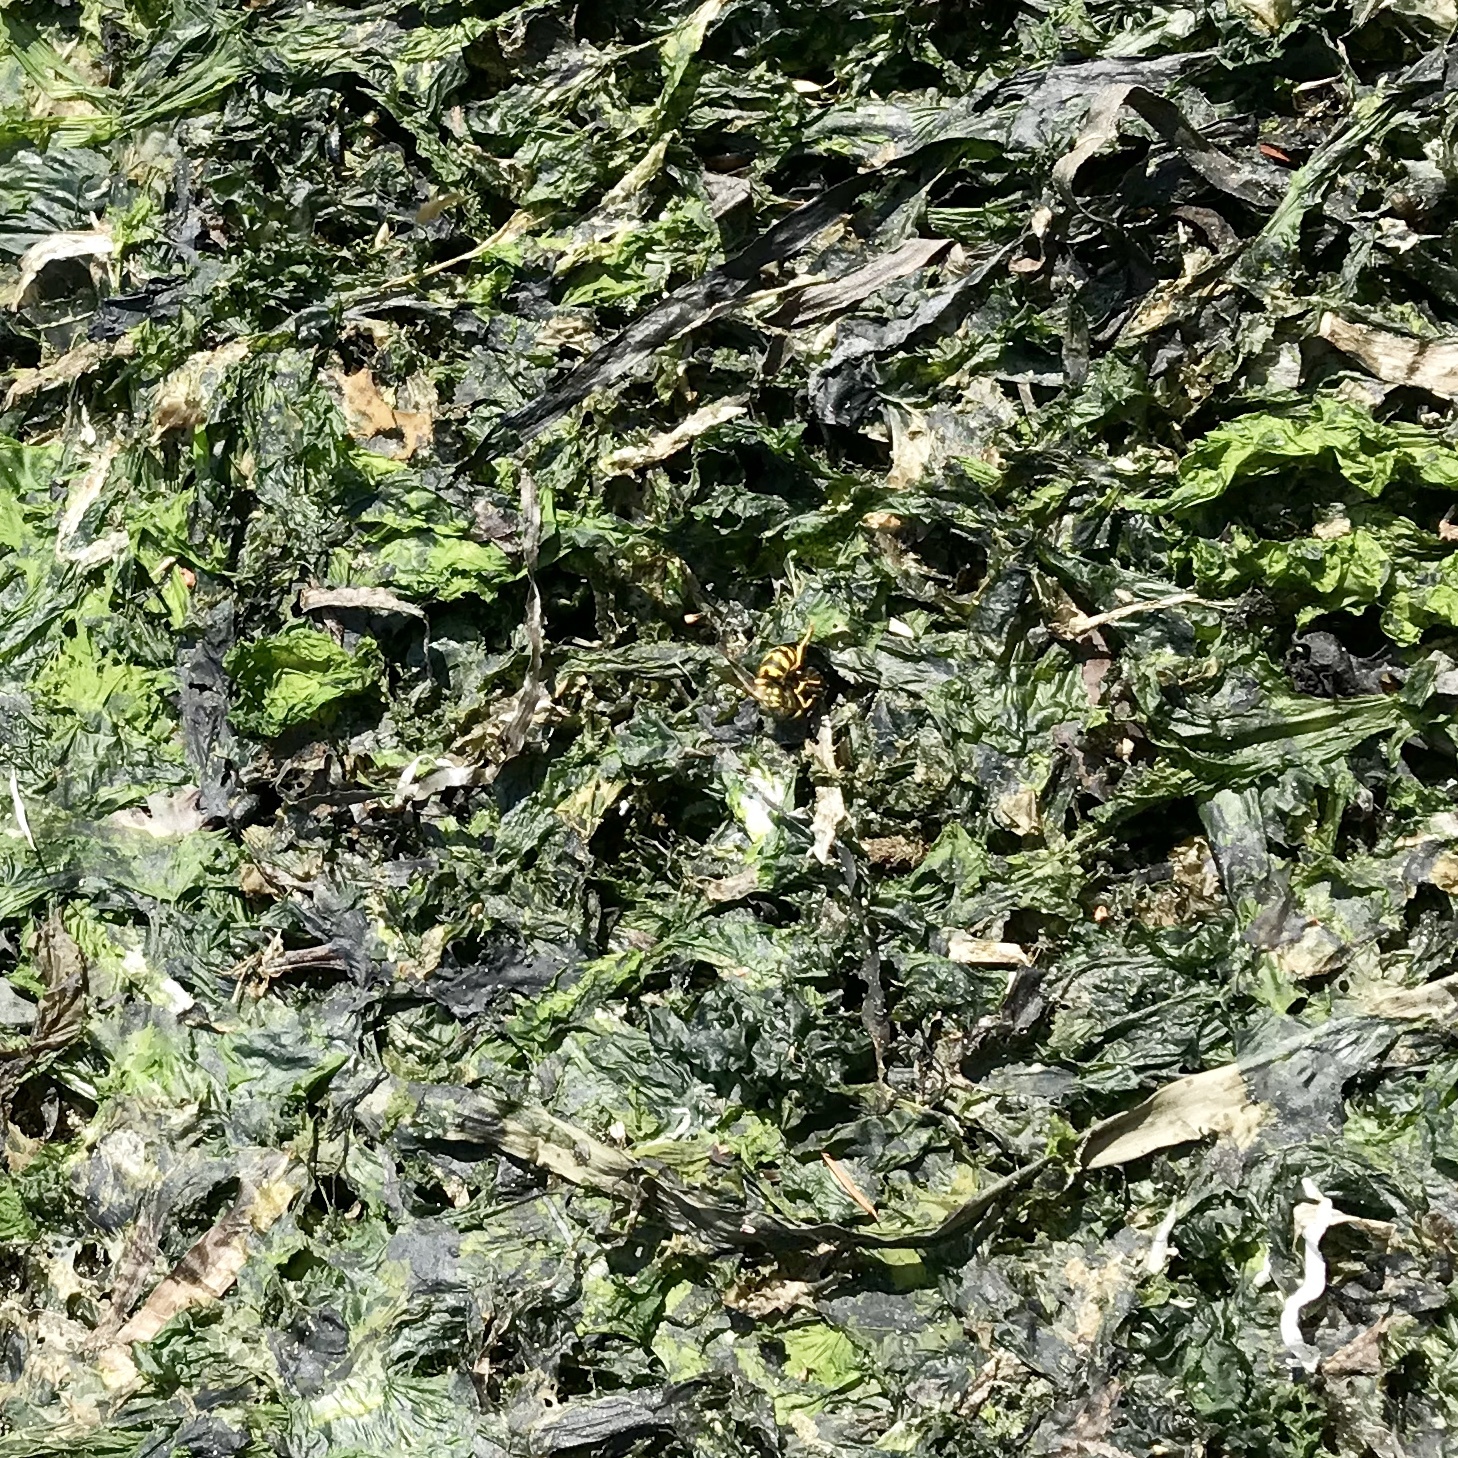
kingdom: Animalia
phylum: Arthropoda
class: Insecta
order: Hymenoptera
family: Vespidae
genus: Vespula
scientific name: Vespula pensylvanica
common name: Western yellowjacket
